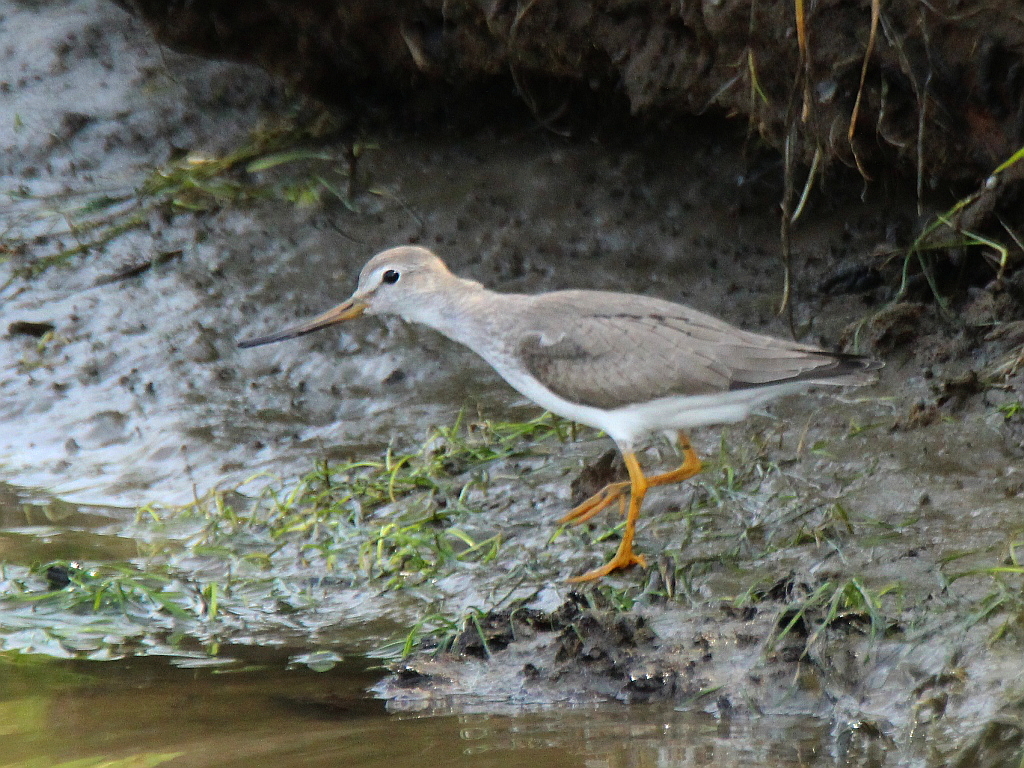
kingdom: Animalia
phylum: Chordata
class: Aves
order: Charadriiformes
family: Scolopacidae
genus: Xenus
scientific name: Xenus cinereus
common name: Terek sandpiper
